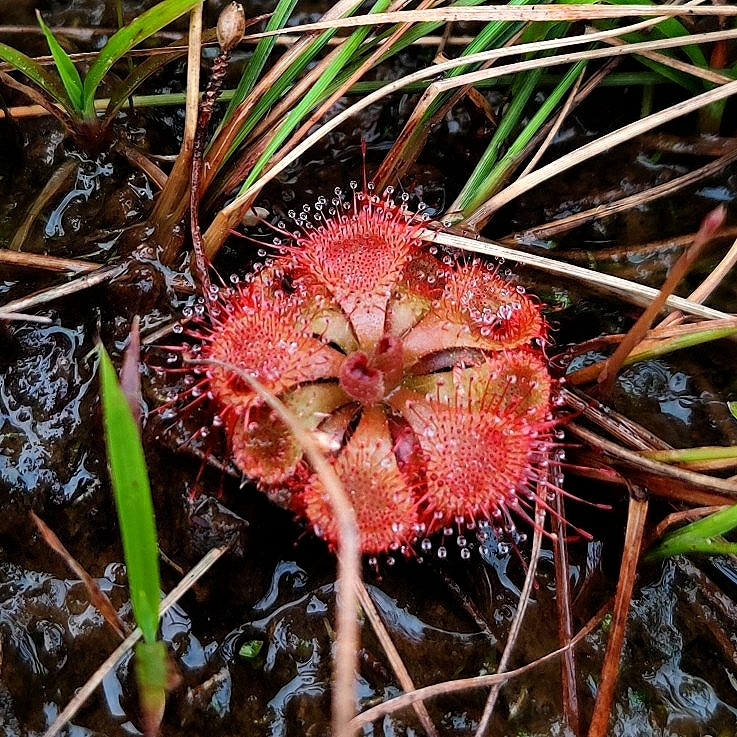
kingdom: Plantae
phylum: Tracheophyta
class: Magnoliopsida
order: Caryophyllales
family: Droseraceae
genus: Drosera
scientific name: Drosera spatulata
